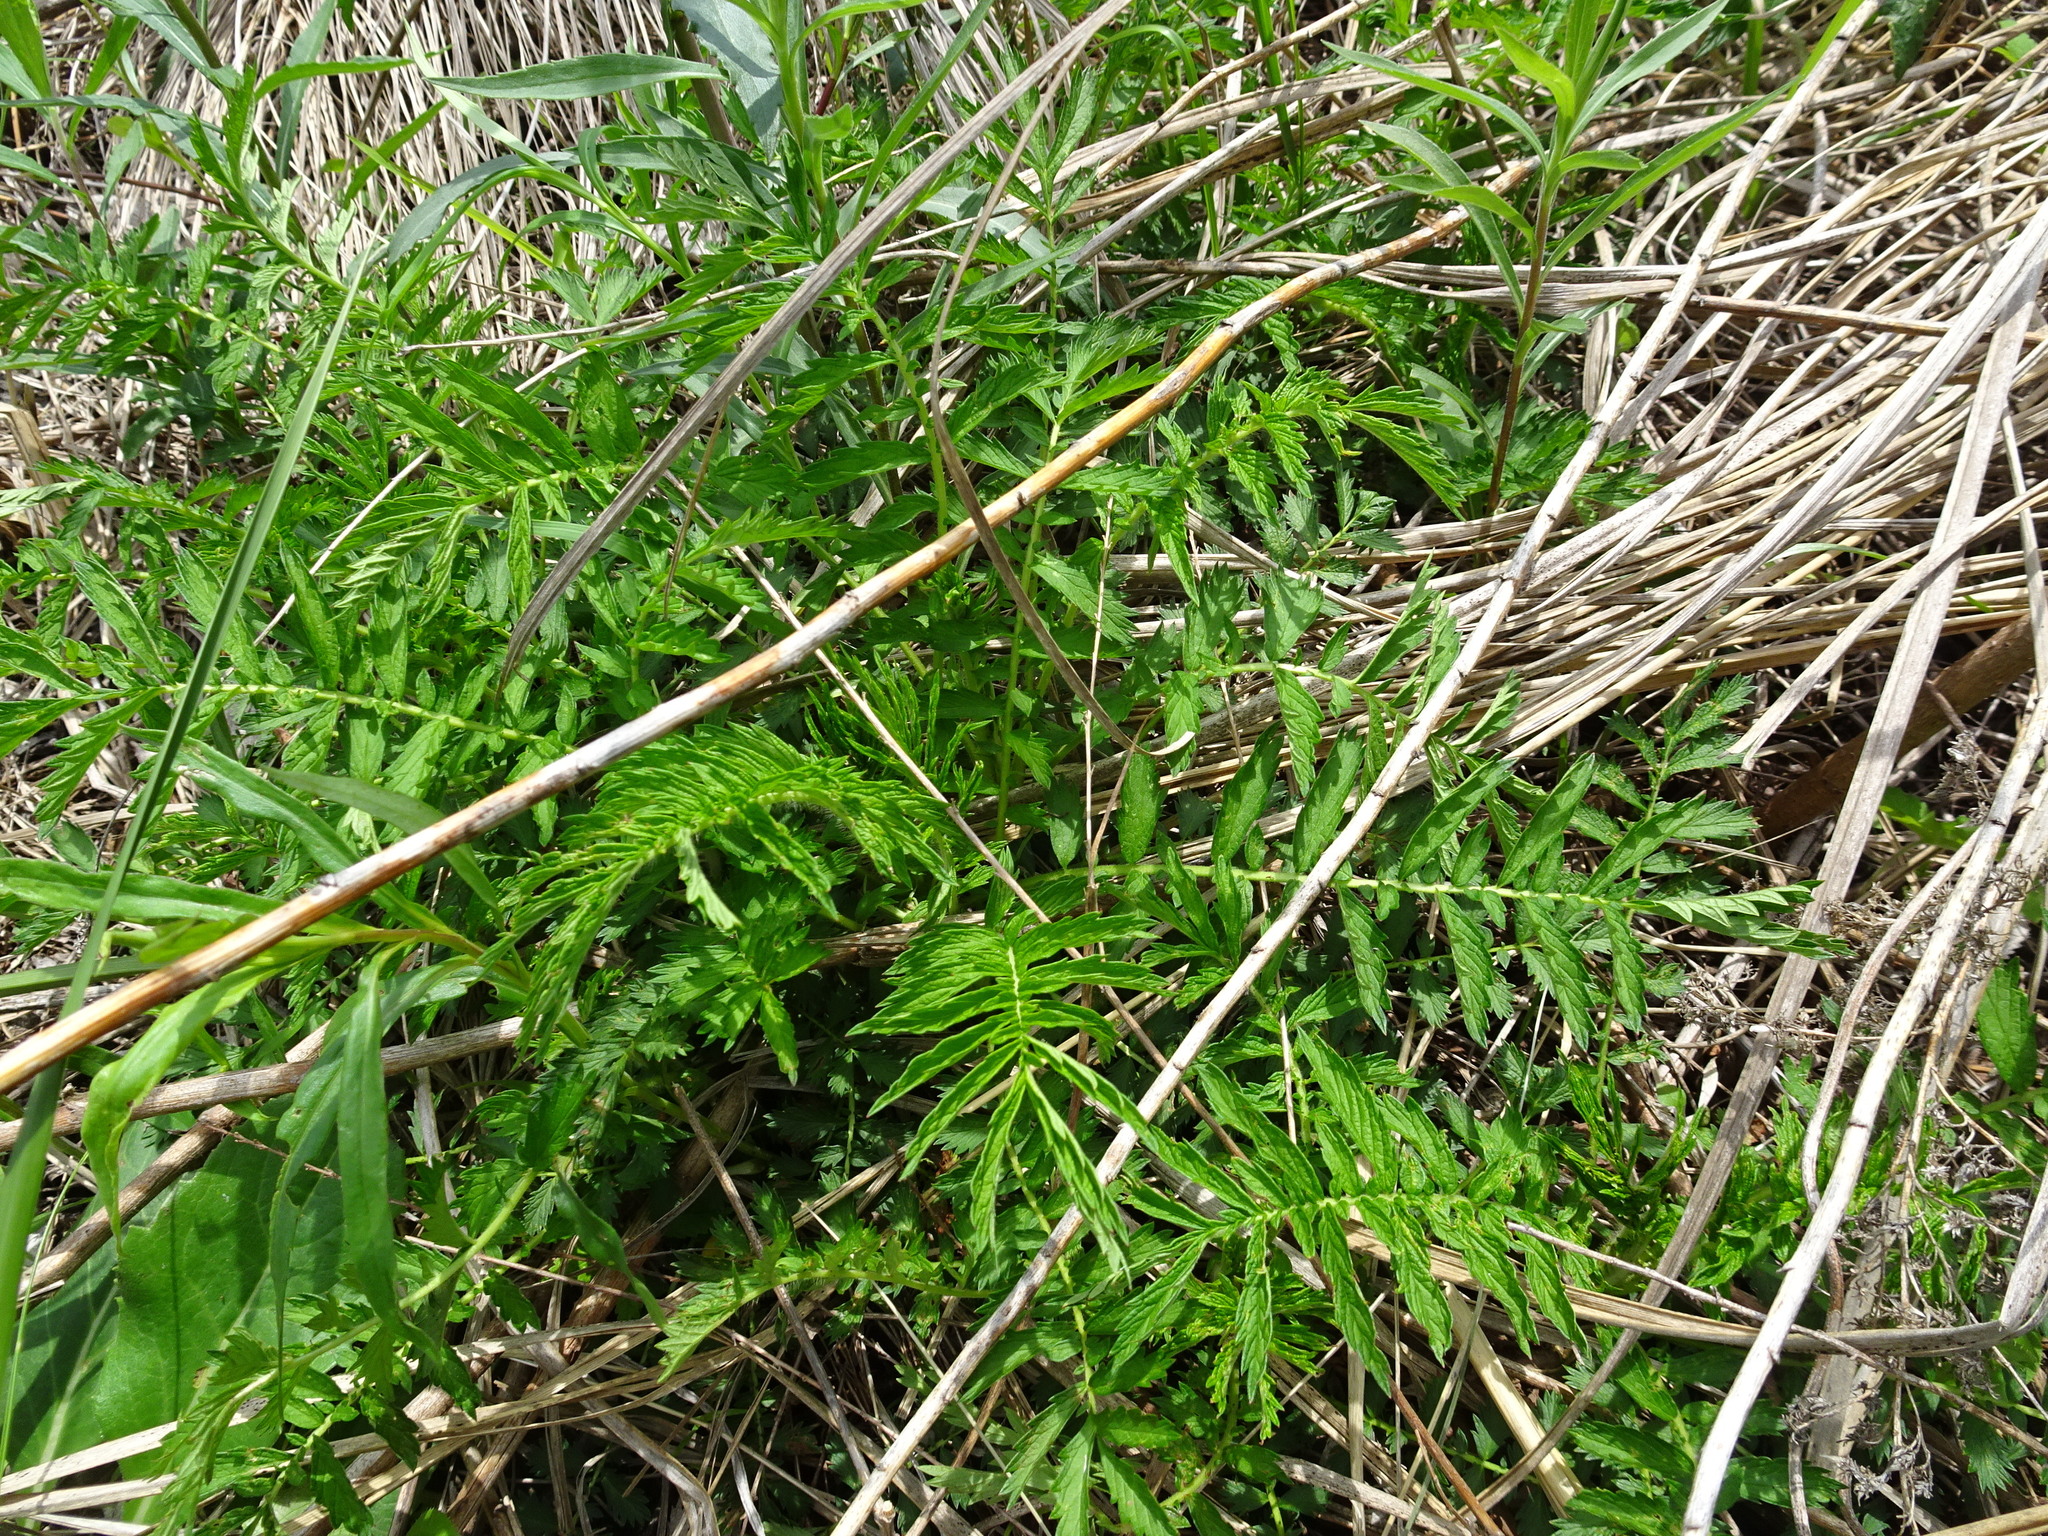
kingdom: Plantae
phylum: Tracheophyta
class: Magnoliopsida
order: Rosales
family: Rosaceae
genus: Agrimonia
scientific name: Agrimonia parviflora
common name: Harvest-lice
